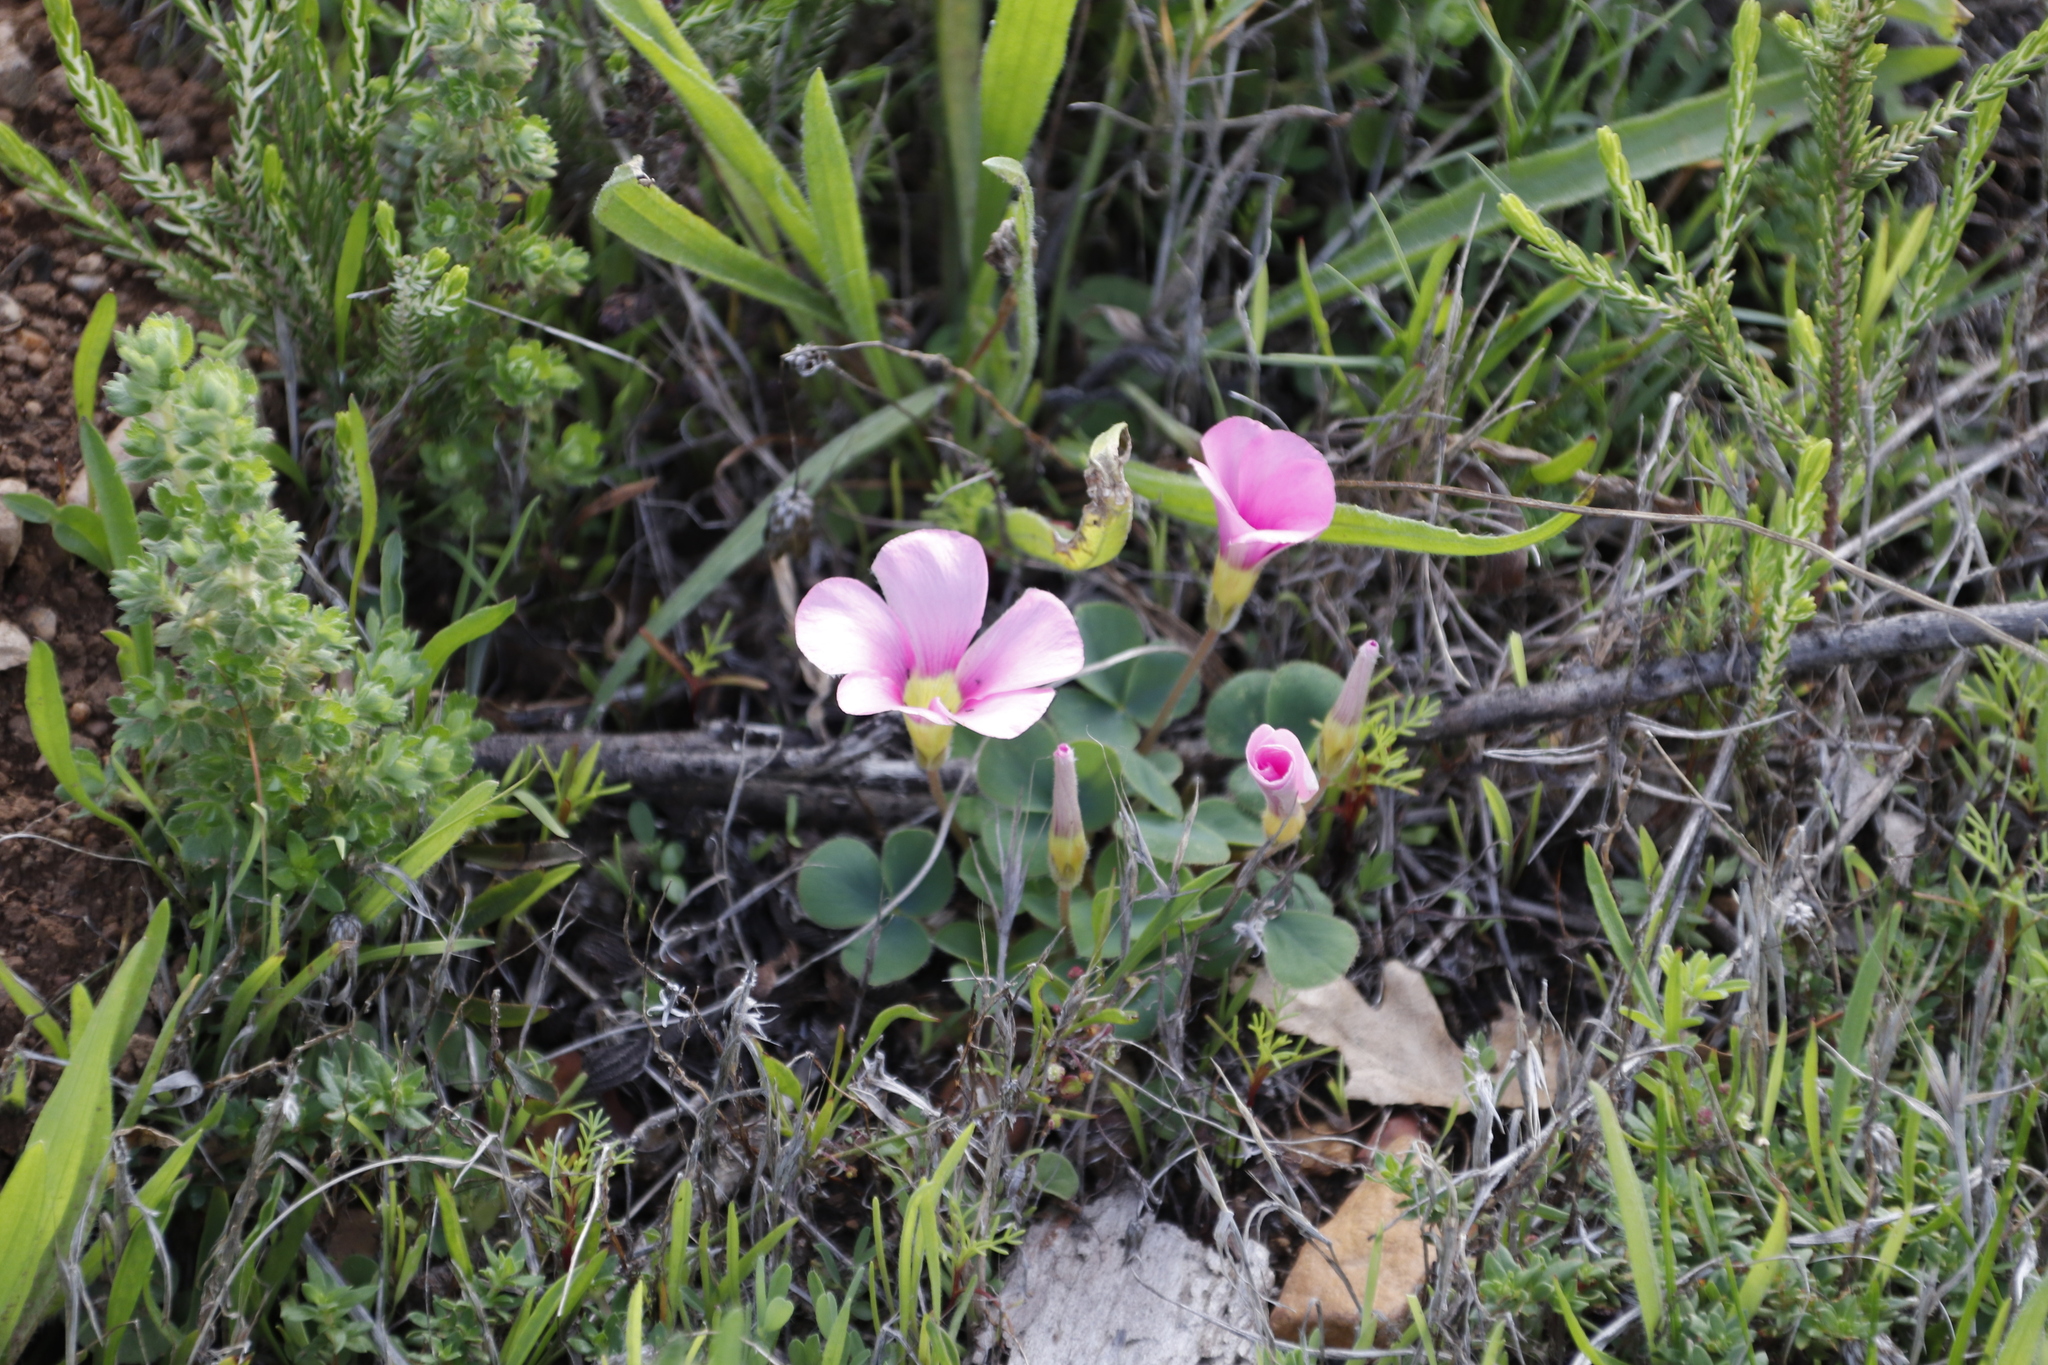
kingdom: Plantae
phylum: Tracheophyta
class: Magnoliopsida
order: Oxalidales
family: Oxalidaceae
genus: Oxalis
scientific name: Oxalis purpurea
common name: Purple woodsorrel
